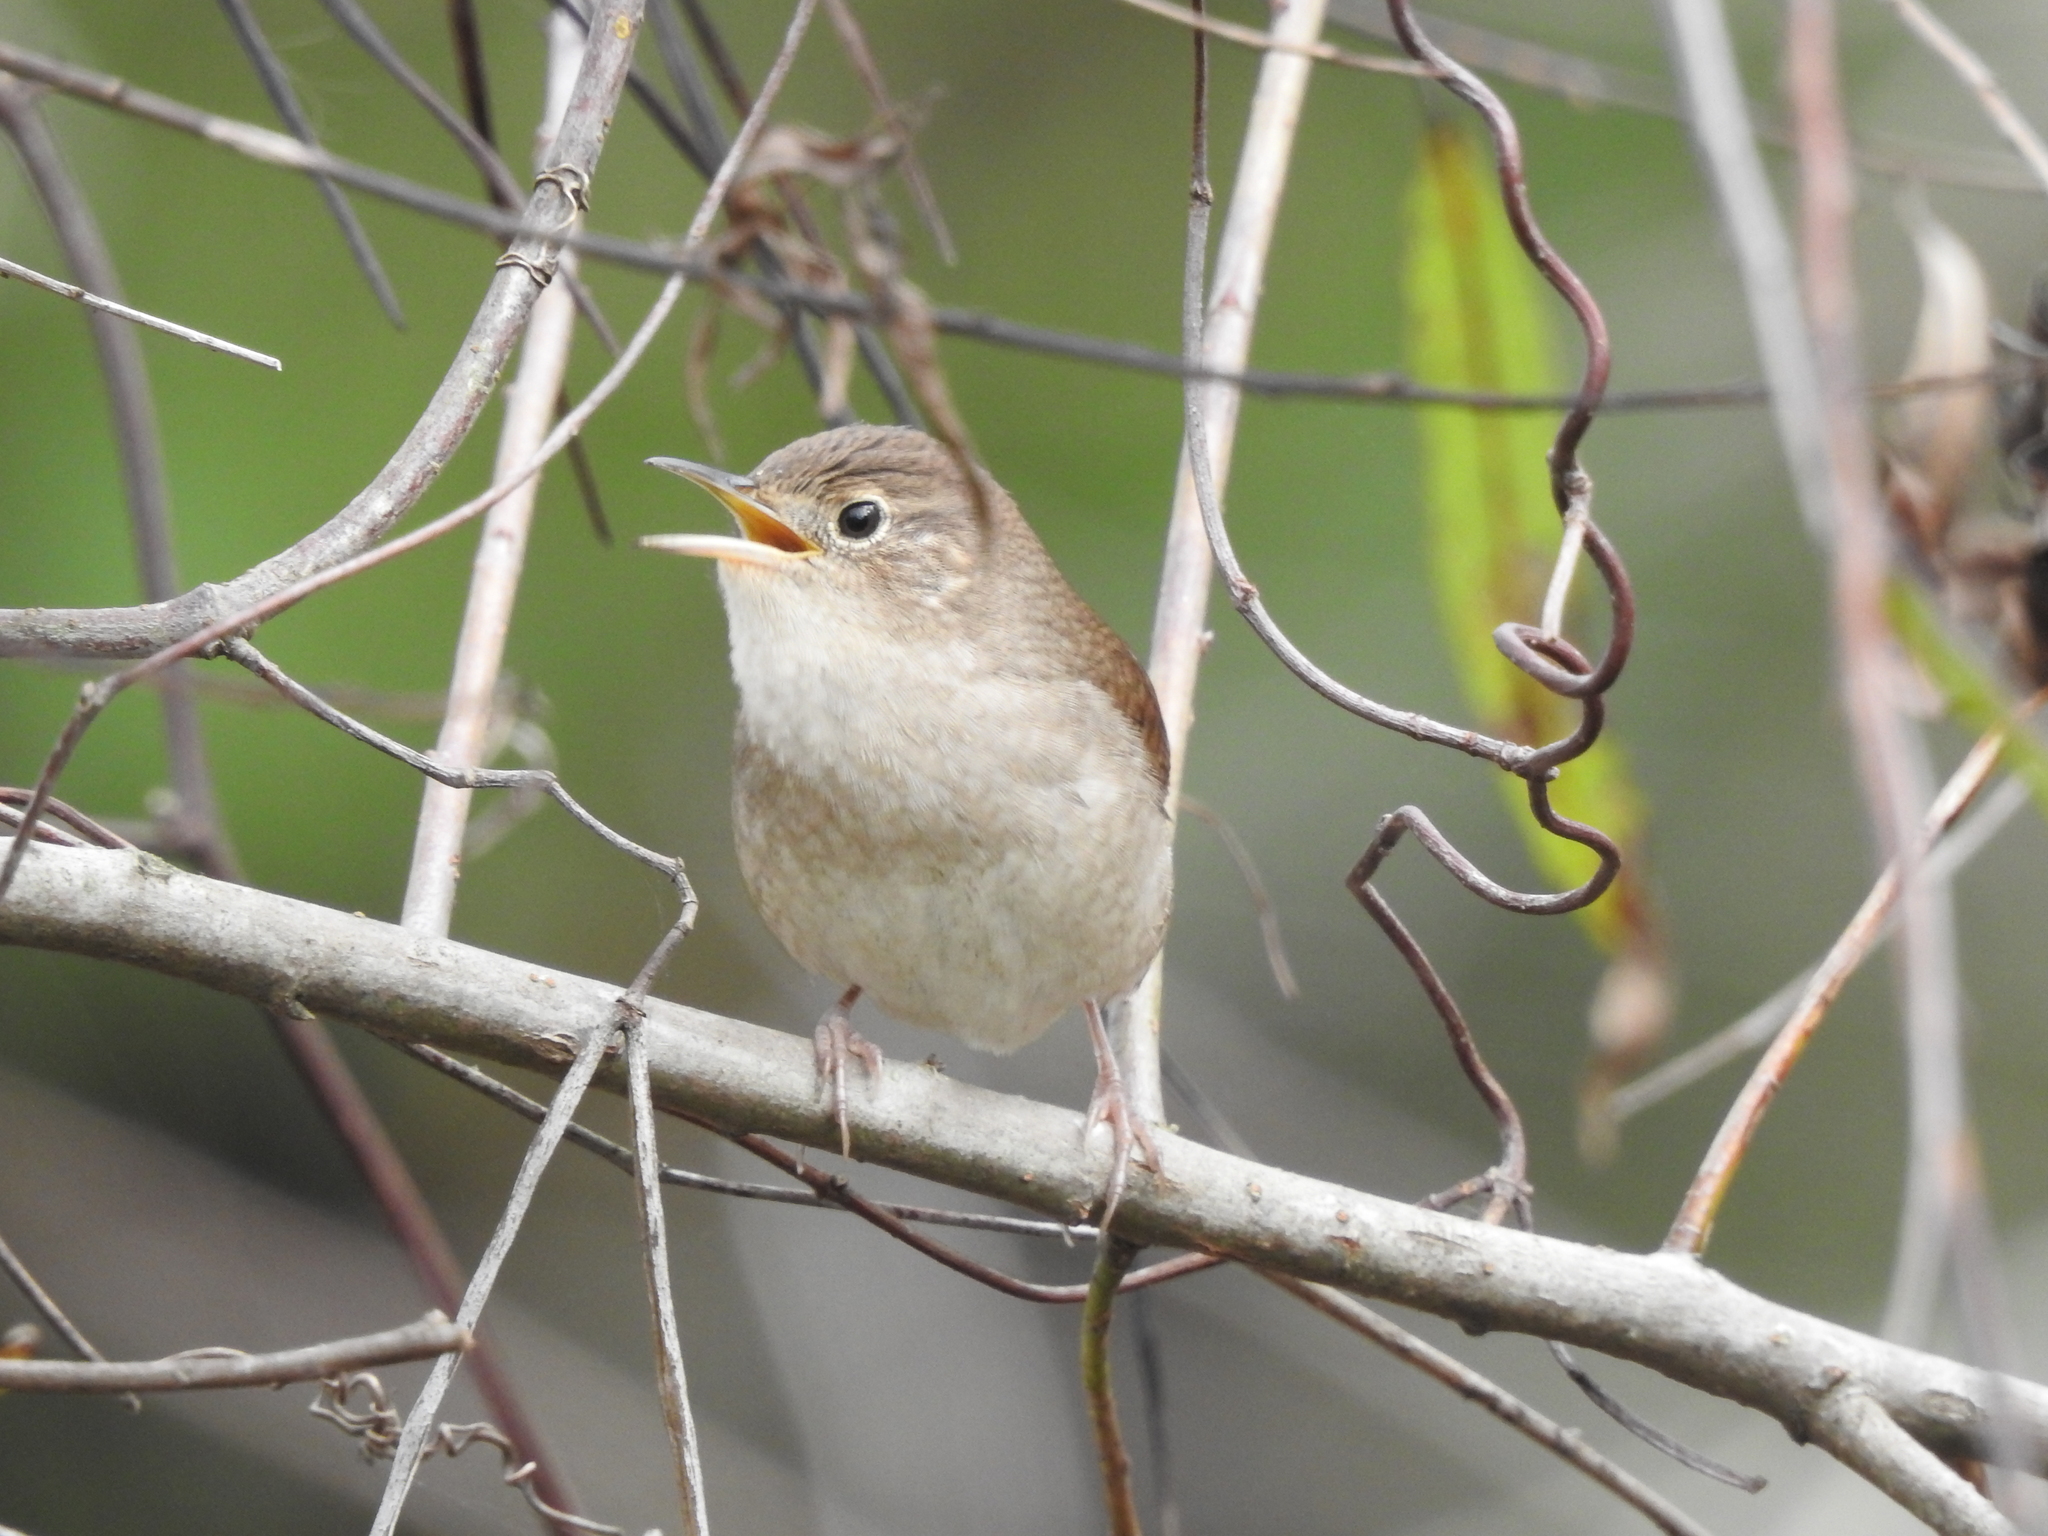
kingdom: Animalia
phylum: Chordata
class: Aves
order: Passeriformes
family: Troglodytidae
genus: Troglodytes
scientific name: Troglodytes aedon
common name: House wren
